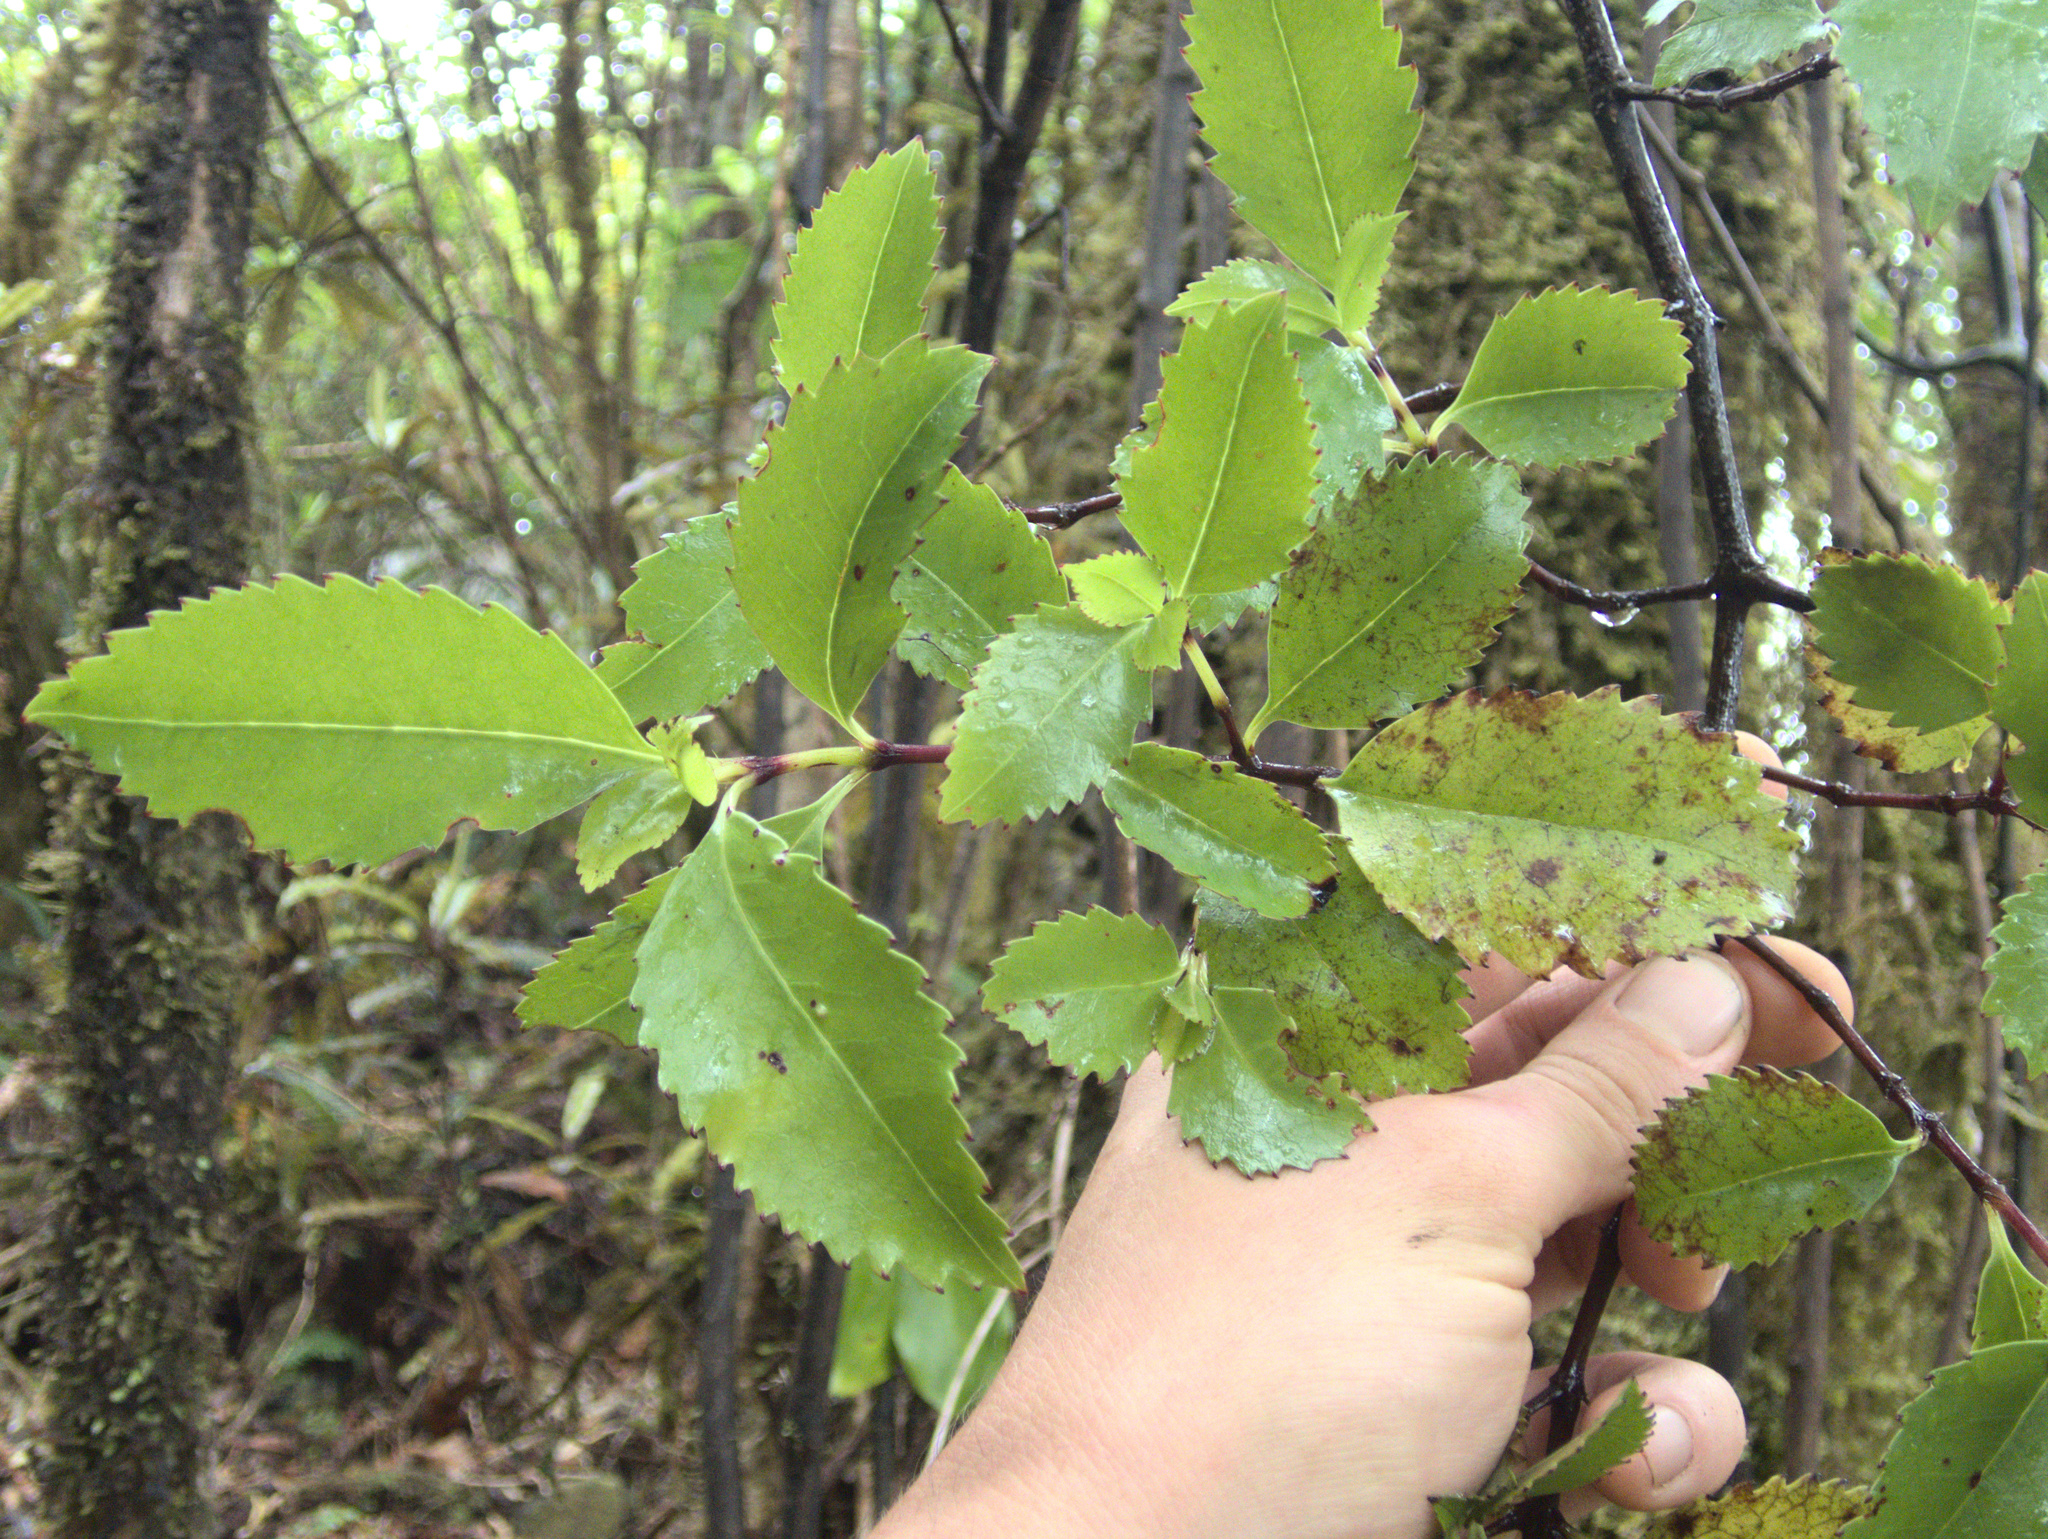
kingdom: Plantae
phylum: Tracheophyta
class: Magnoliopsida
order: Chloranthales
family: Chloranthaceae
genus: Ascarina
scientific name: Ascarina lucida
